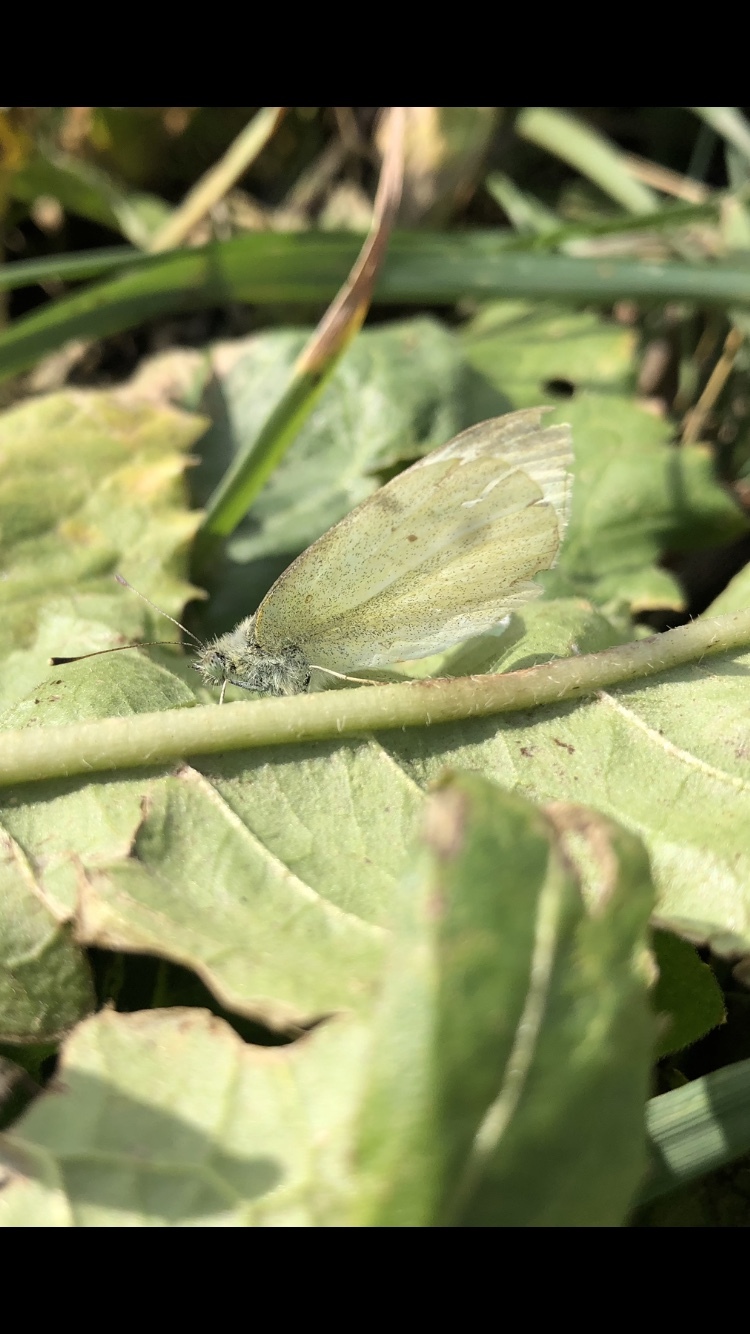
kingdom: Animalia
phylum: Arthropoda
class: Insecta
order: Lepidoptera
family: Pieridae
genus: Pieris
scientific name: Pieris rapae
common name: Small white
